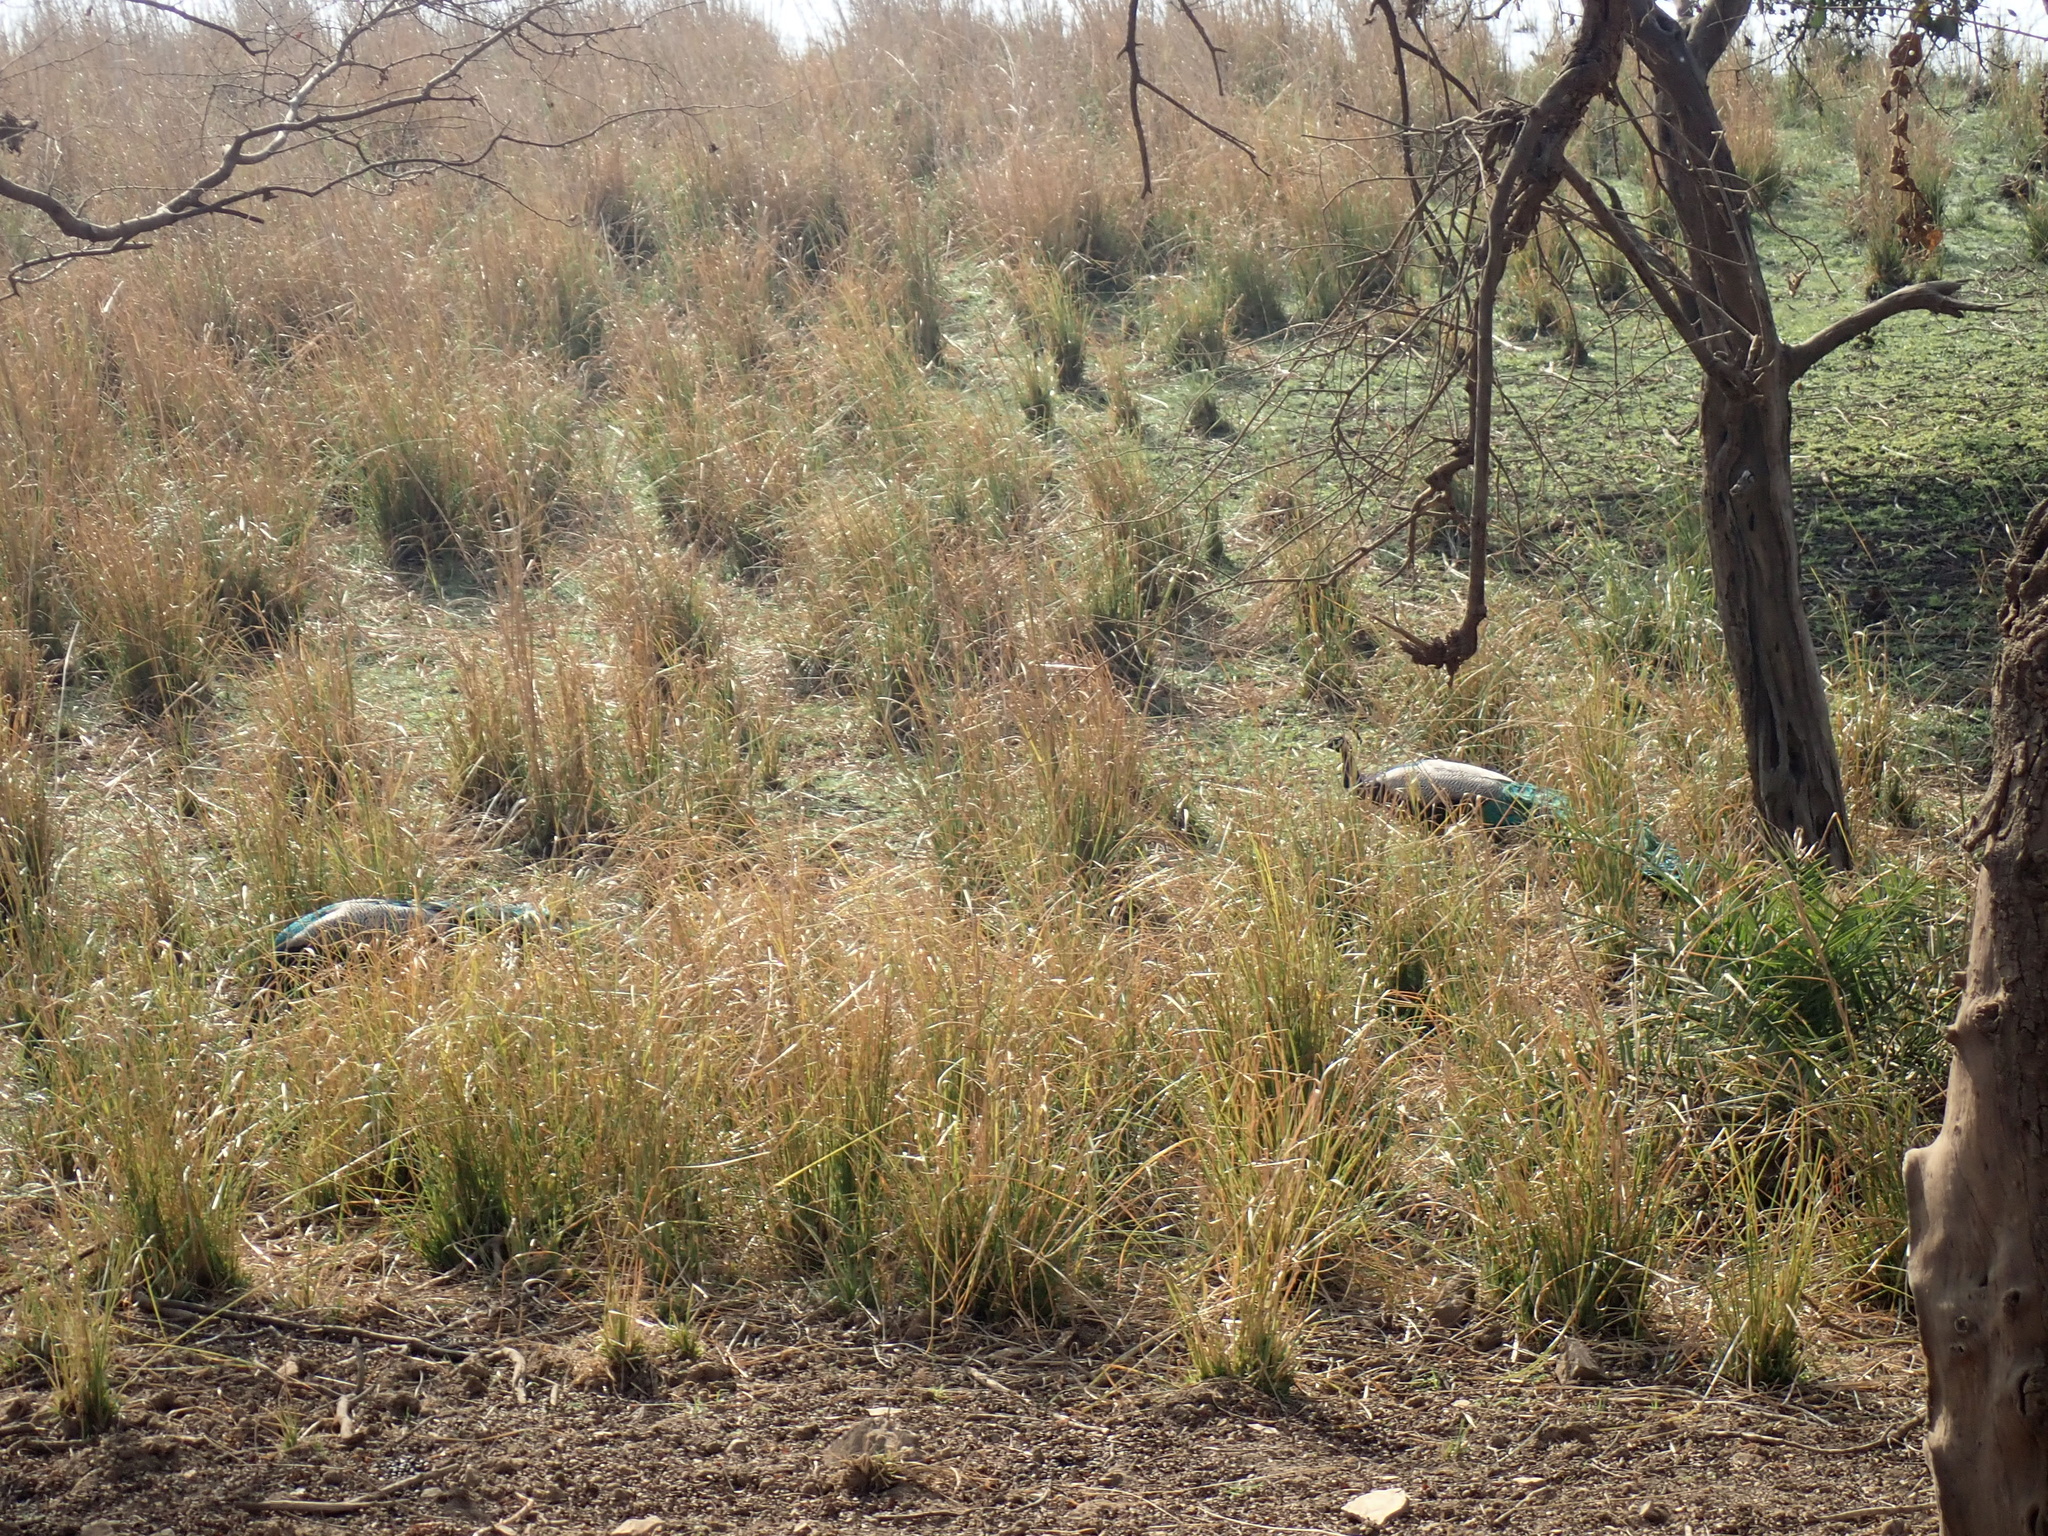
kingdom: Animalia
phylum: Chordata
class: Aves
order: Galliformes
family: Phasianidae
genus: Pavo
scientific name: Pavo cristatus
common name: Indian peafowl
